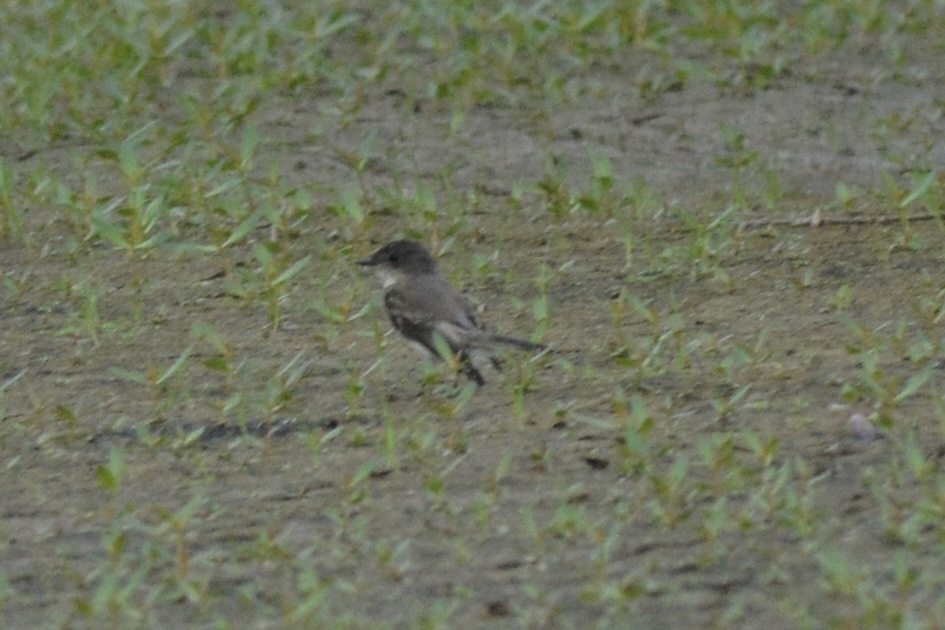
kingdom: Animalia
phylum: Chordata
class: Aves
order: Passeriformes
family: Tyrannidae
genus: Sayornis
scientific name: Sayornis phoebe
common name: Eastern phoebe
